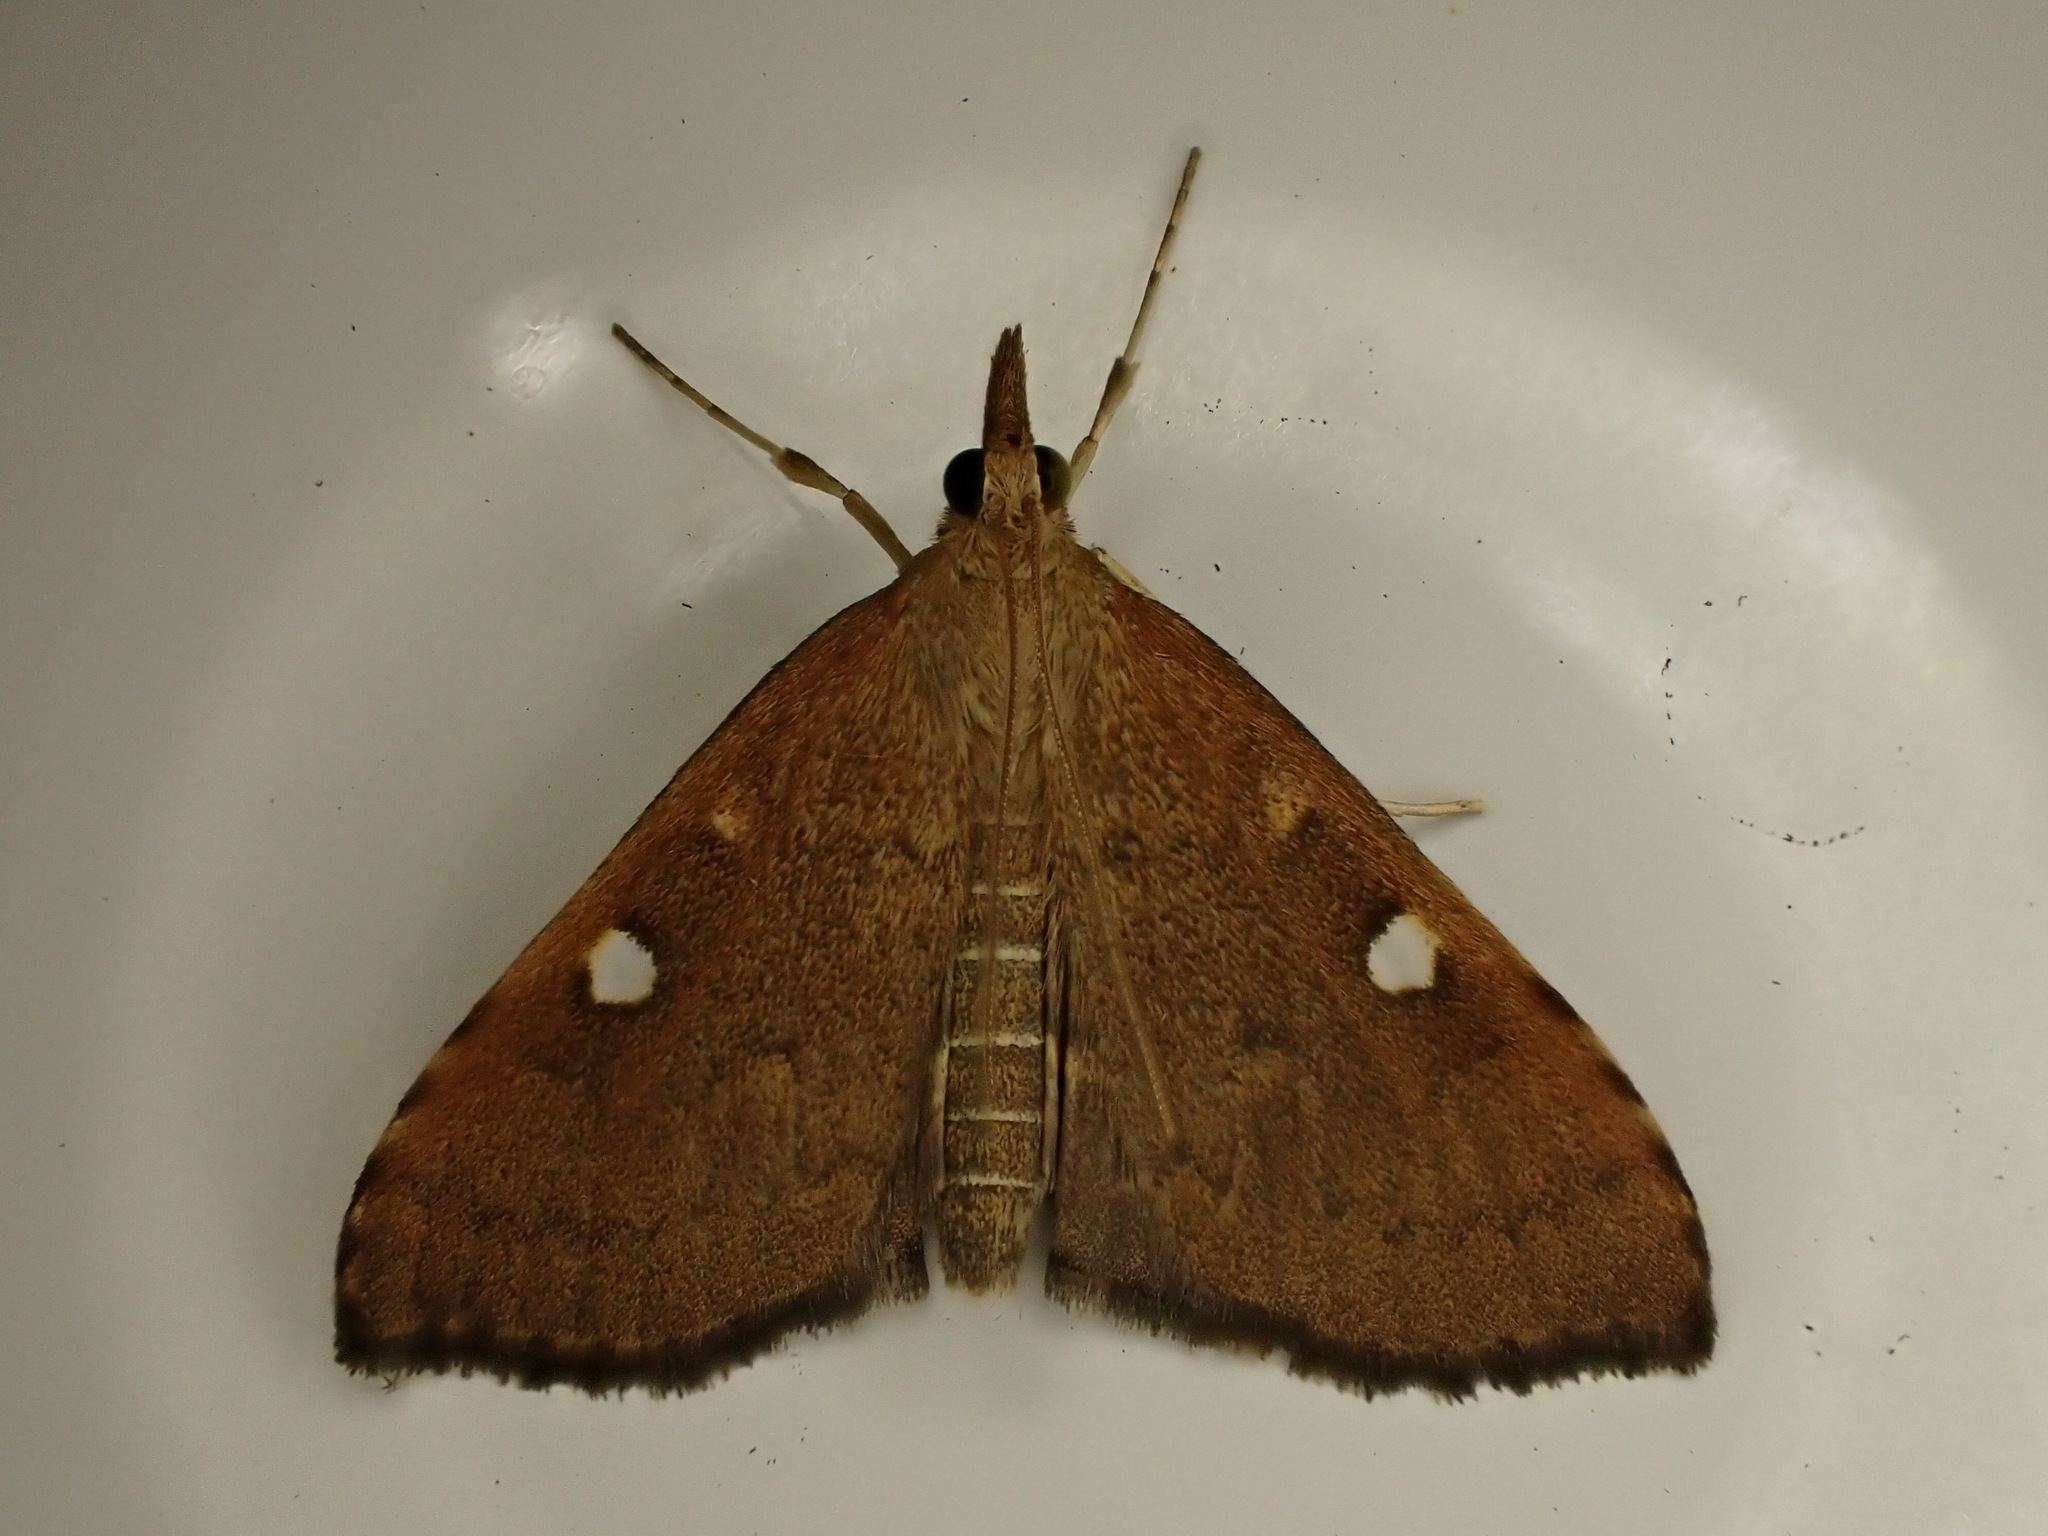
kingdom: Animalia
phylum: Arthropoda
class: Insecta
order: Lepidoptera
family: Crambidae
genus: Udea
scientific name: Udea Mnesictena marmarina
